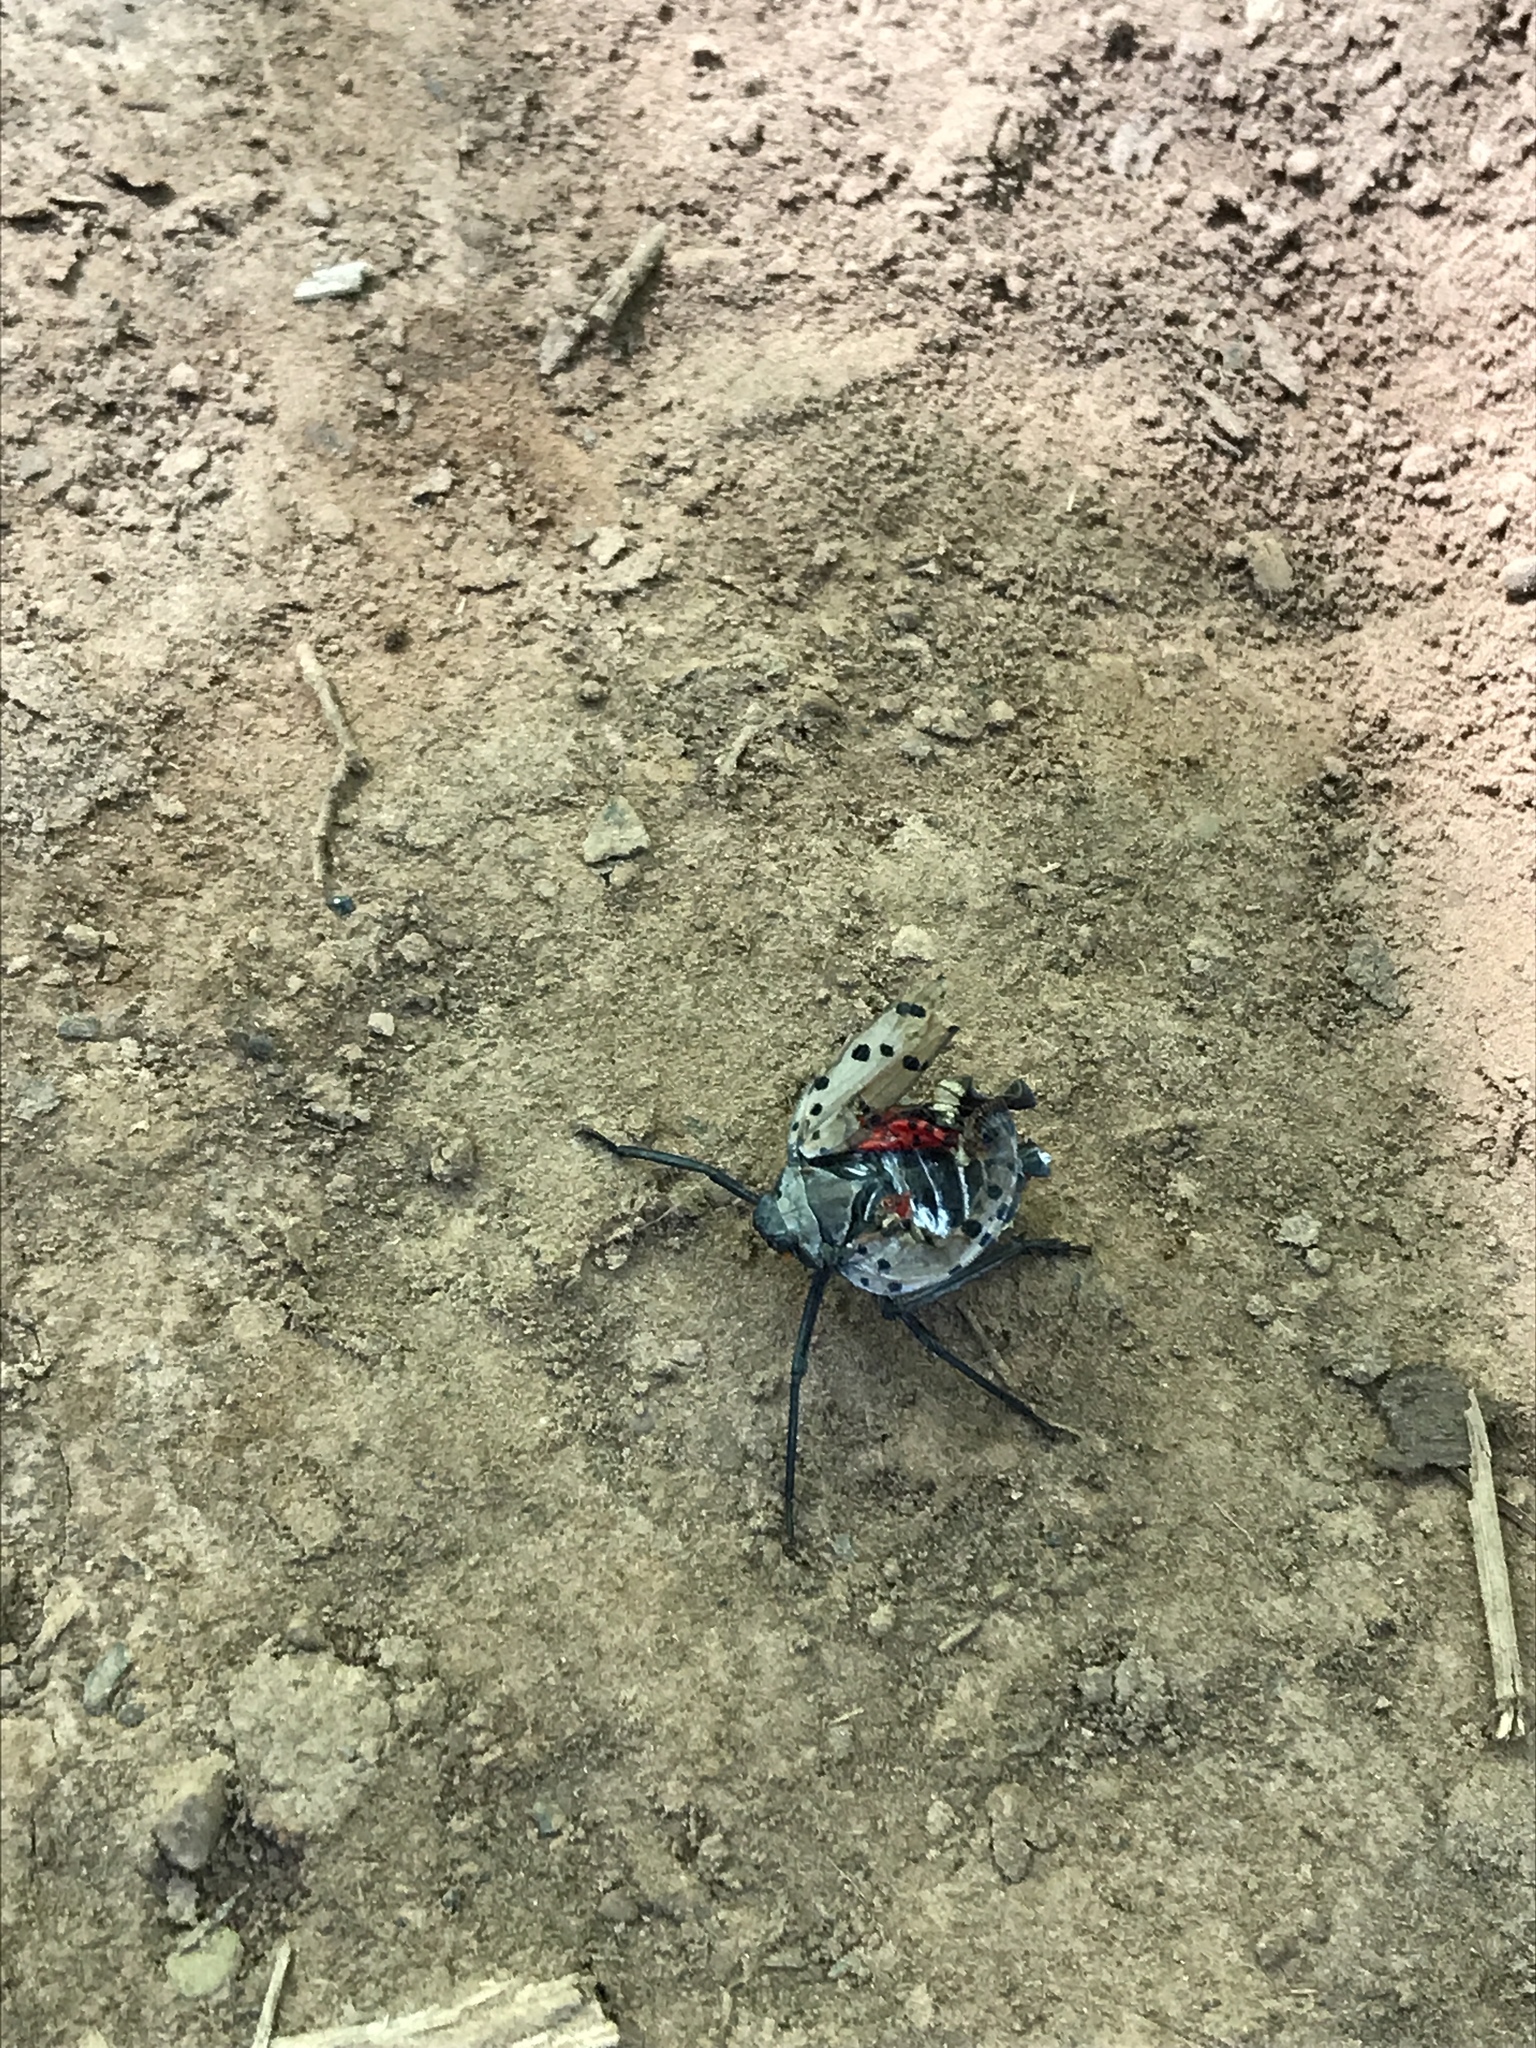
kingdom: Animalia
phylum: Arthropoda
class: Insecta
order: Hemiptera
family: Fulgoridae
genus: Lycorma
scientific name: Lycorma delicatula
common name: Spotted lanternfly
